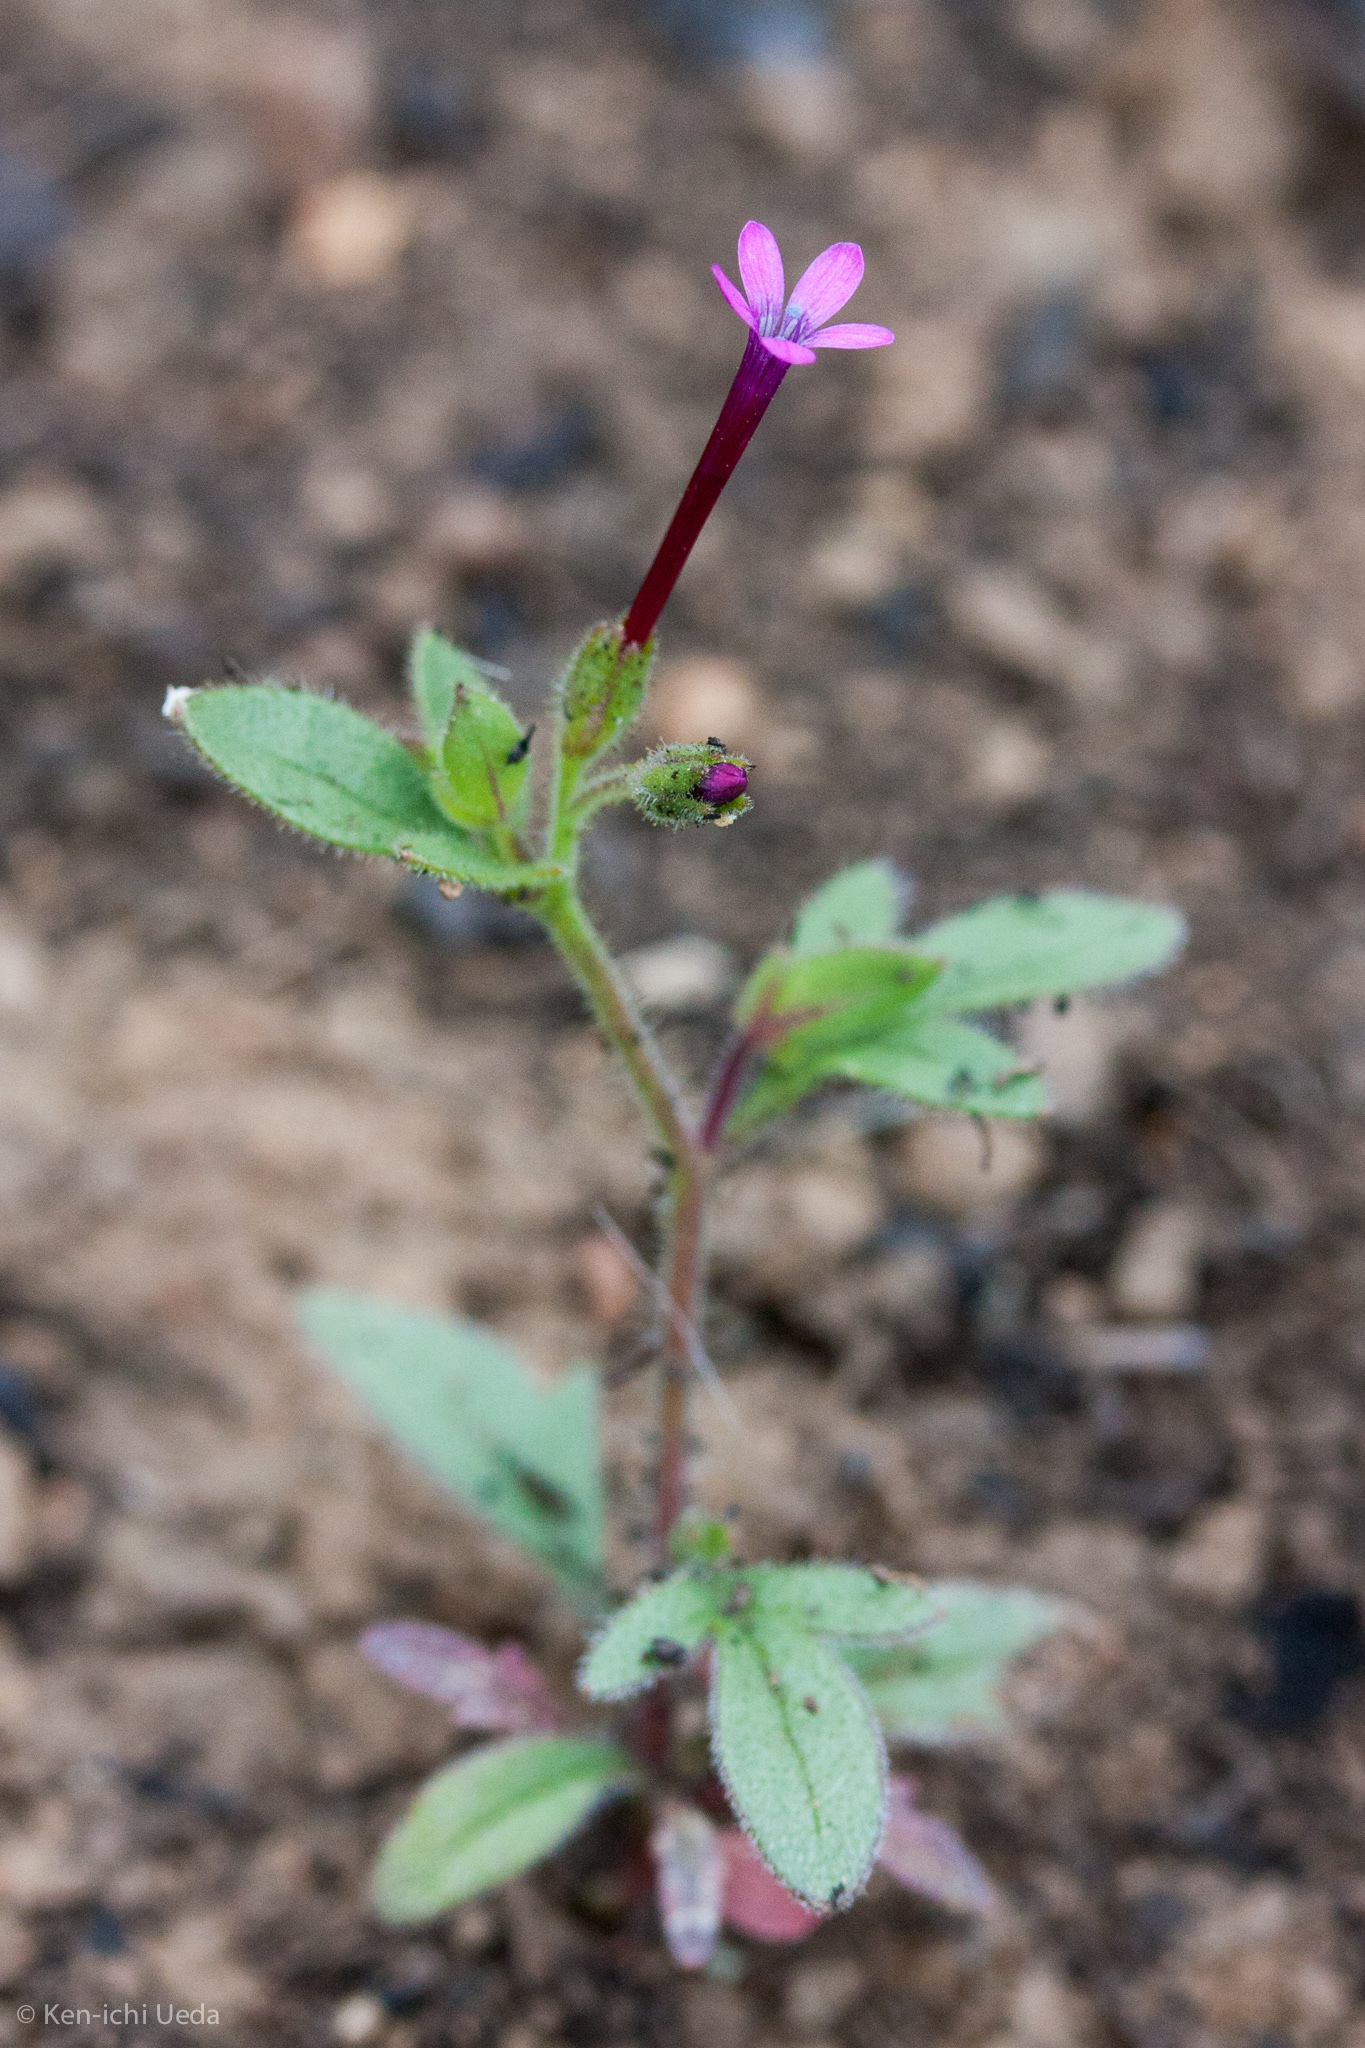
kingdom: Plantae
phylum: Tracheophyta
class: Magnoliopsida
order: Ericales
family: Polemoniaceae
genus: Allophyllum
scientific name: Allophyllum divaricatum
